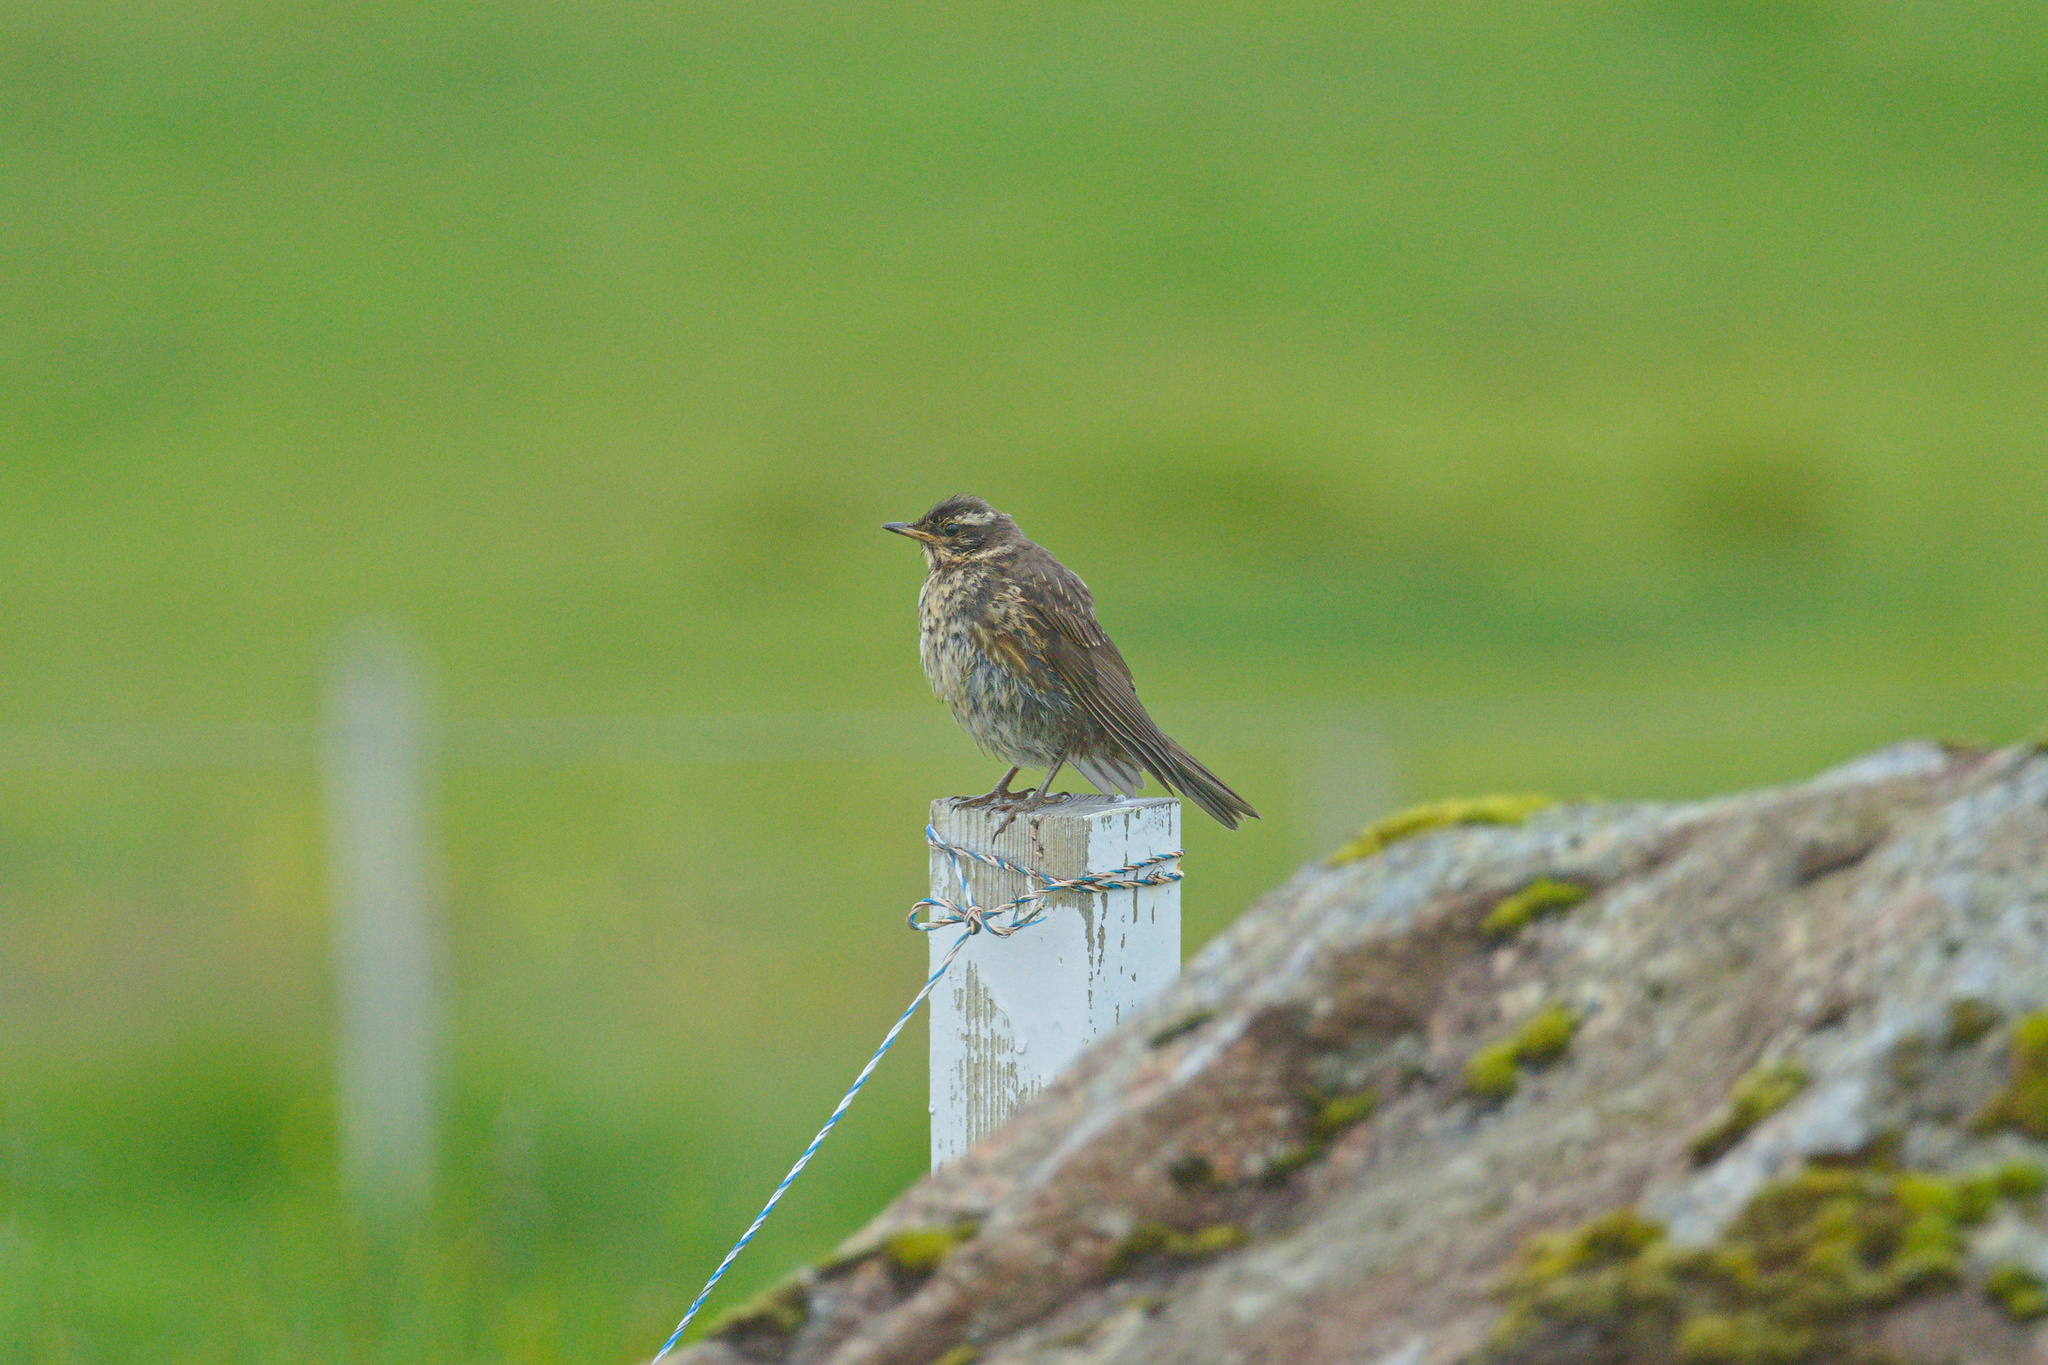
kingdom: Animalia
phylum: Chordata
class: Aves
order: Passeriformes
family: Turdidae
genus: Turdus
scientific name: Turdus iliacus
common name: Redwing
